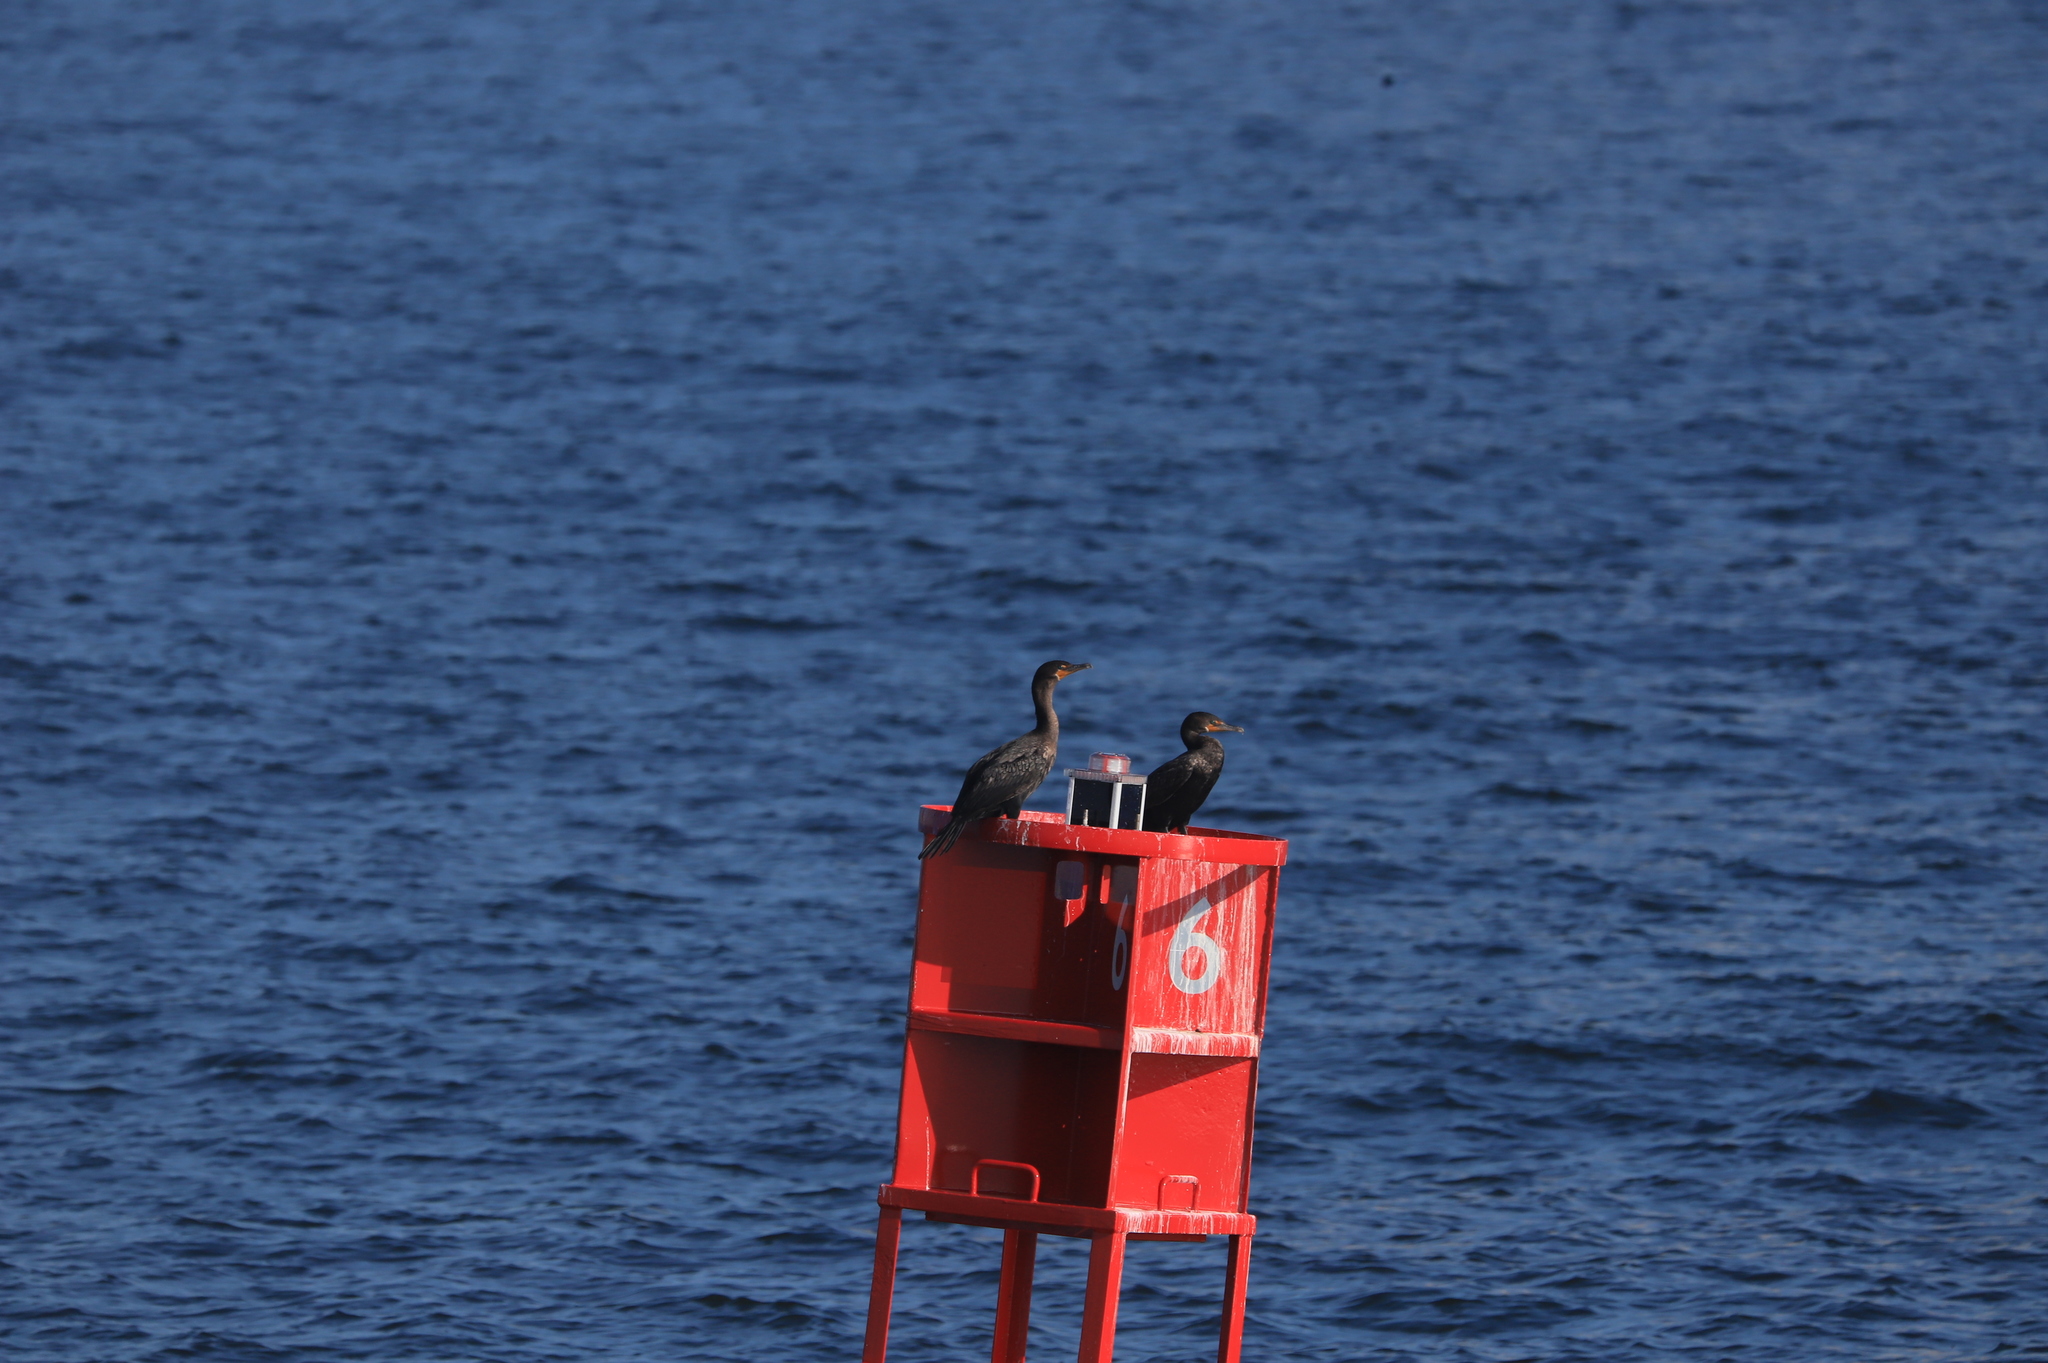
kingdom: Animalia
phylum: Chordata
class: Aves
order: Suliformes
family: Phalacrocoracidae
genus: Phalacrocorax
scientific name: Phalacrocorax auritus
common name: Double-crested cormorant
